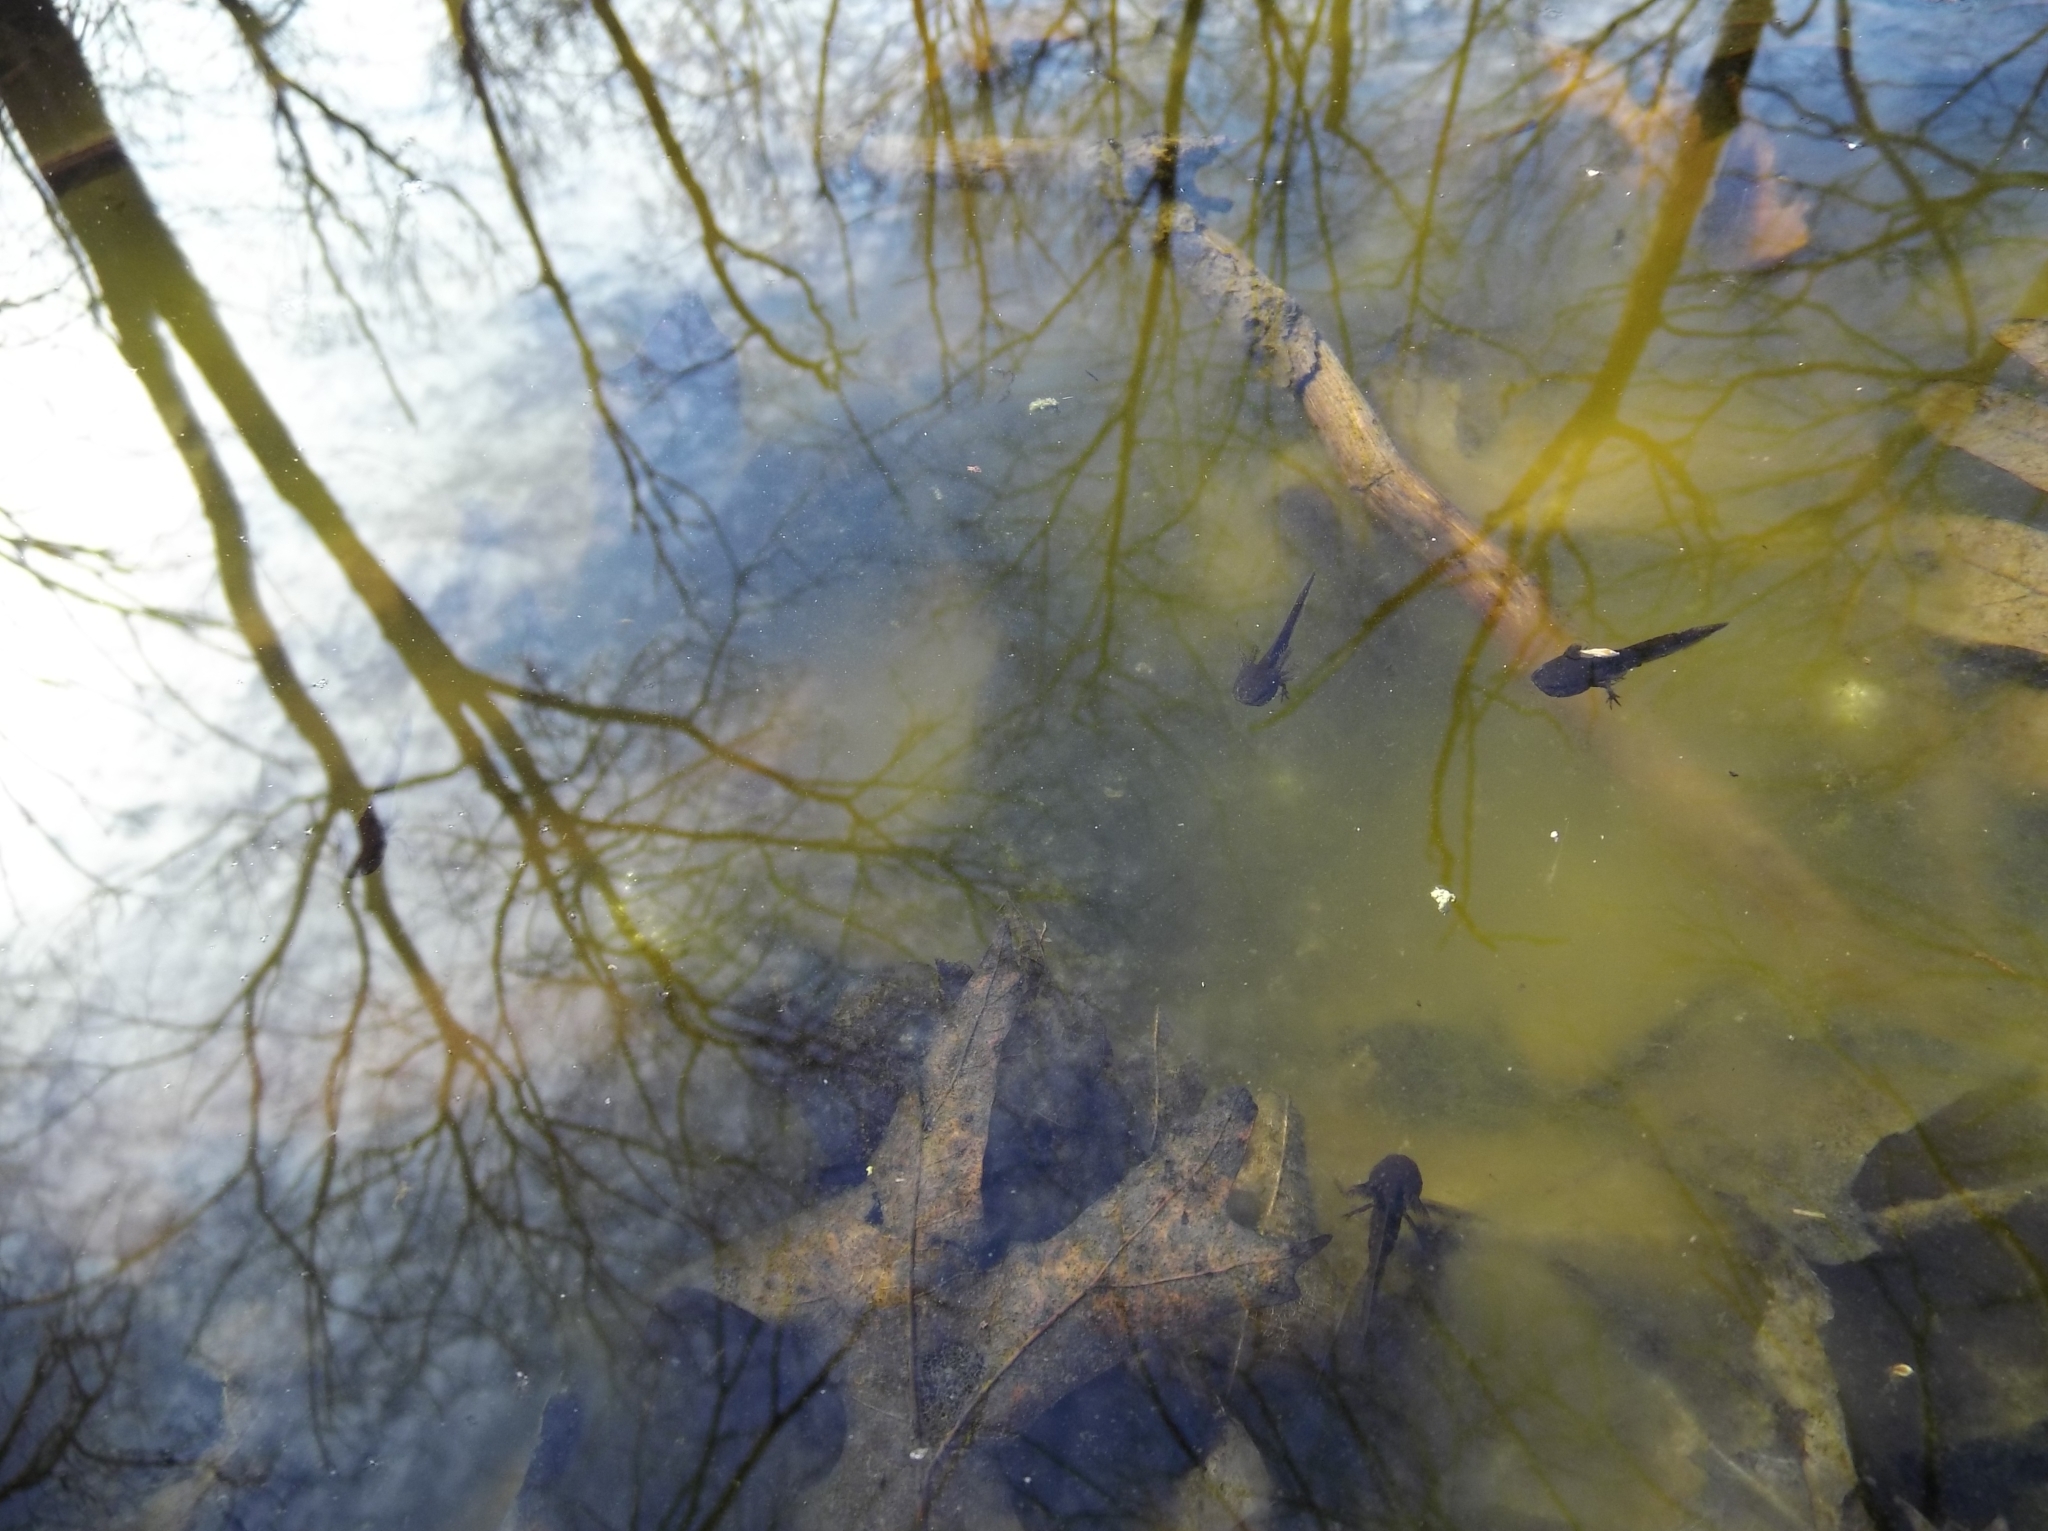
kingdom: Animalia
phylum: Chordata
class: Amphibia
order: Caudata
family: Ambystomatidae
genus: Ambystoma
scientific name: Ambystoma opacum
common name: Marbled salamander
